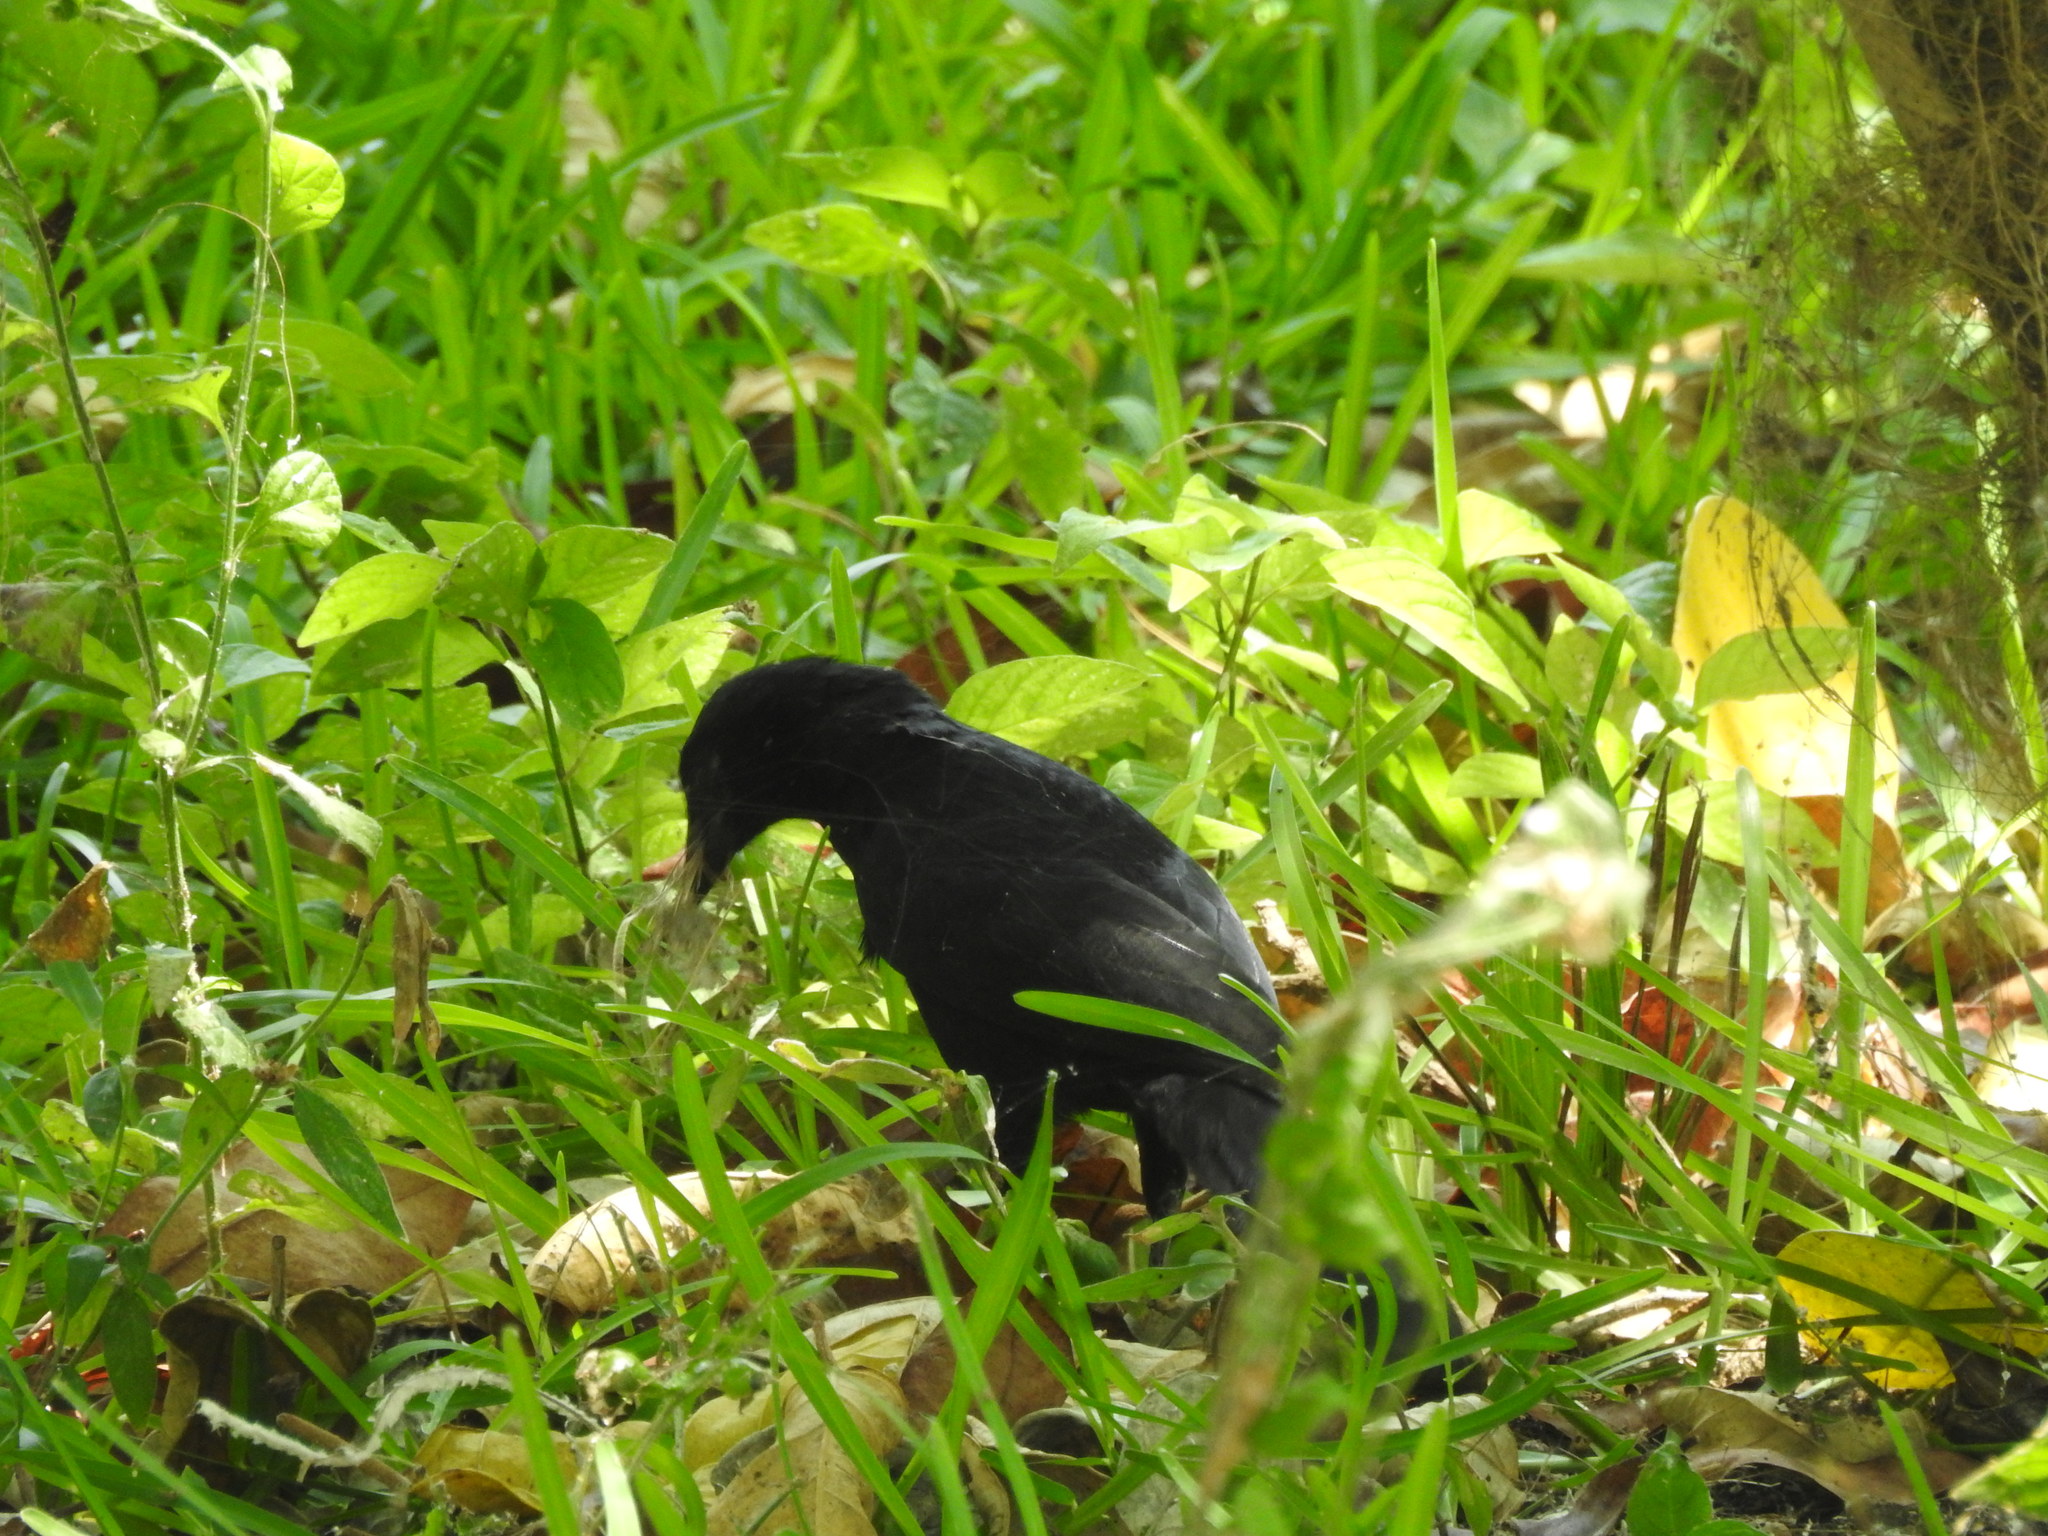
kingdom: Animalia
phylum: Chordata
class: Aves
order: Passeriformes
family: Icteridae
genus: Dives
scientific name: Dives dives
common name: Melodious blackbird
